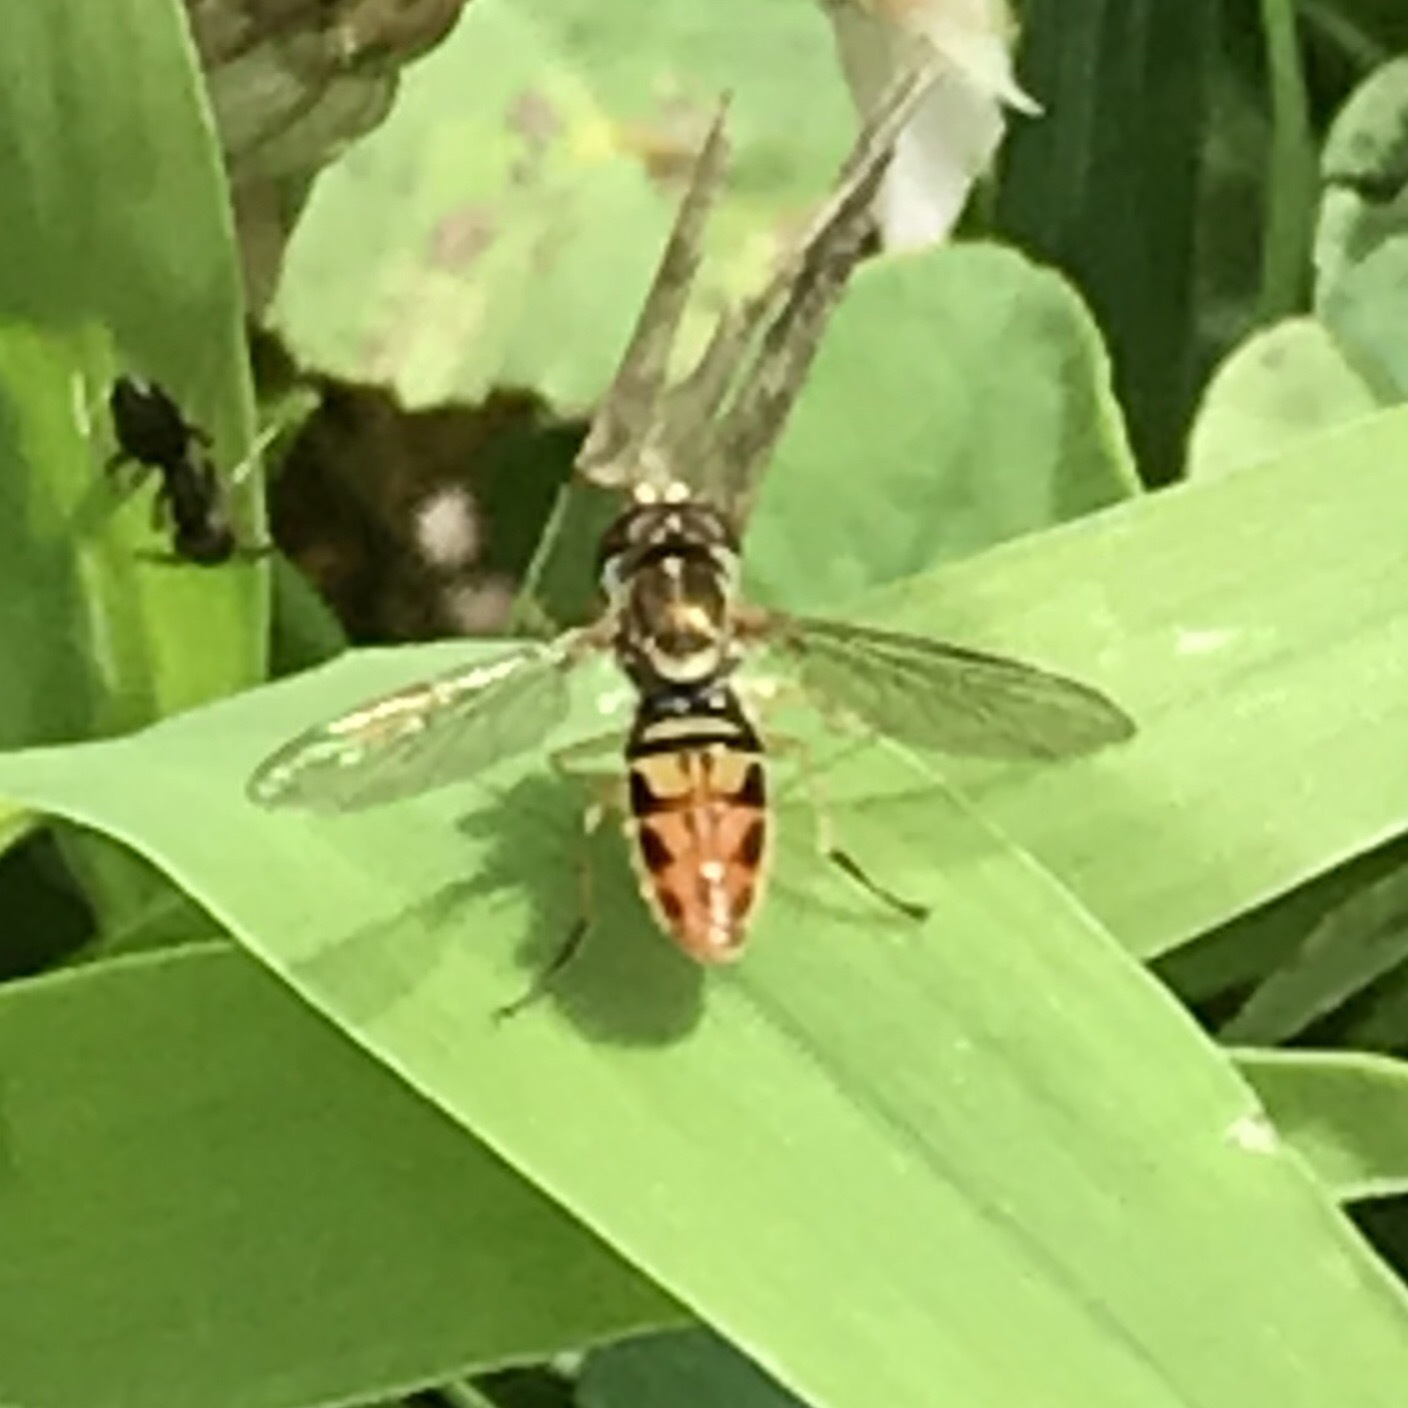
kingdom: Animalia
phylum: Arthropoda
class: Insecta
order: Diptera
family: Syrphidae
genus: Toxomerus
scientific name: Toxomerus marginatus
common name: Syrphid fly
